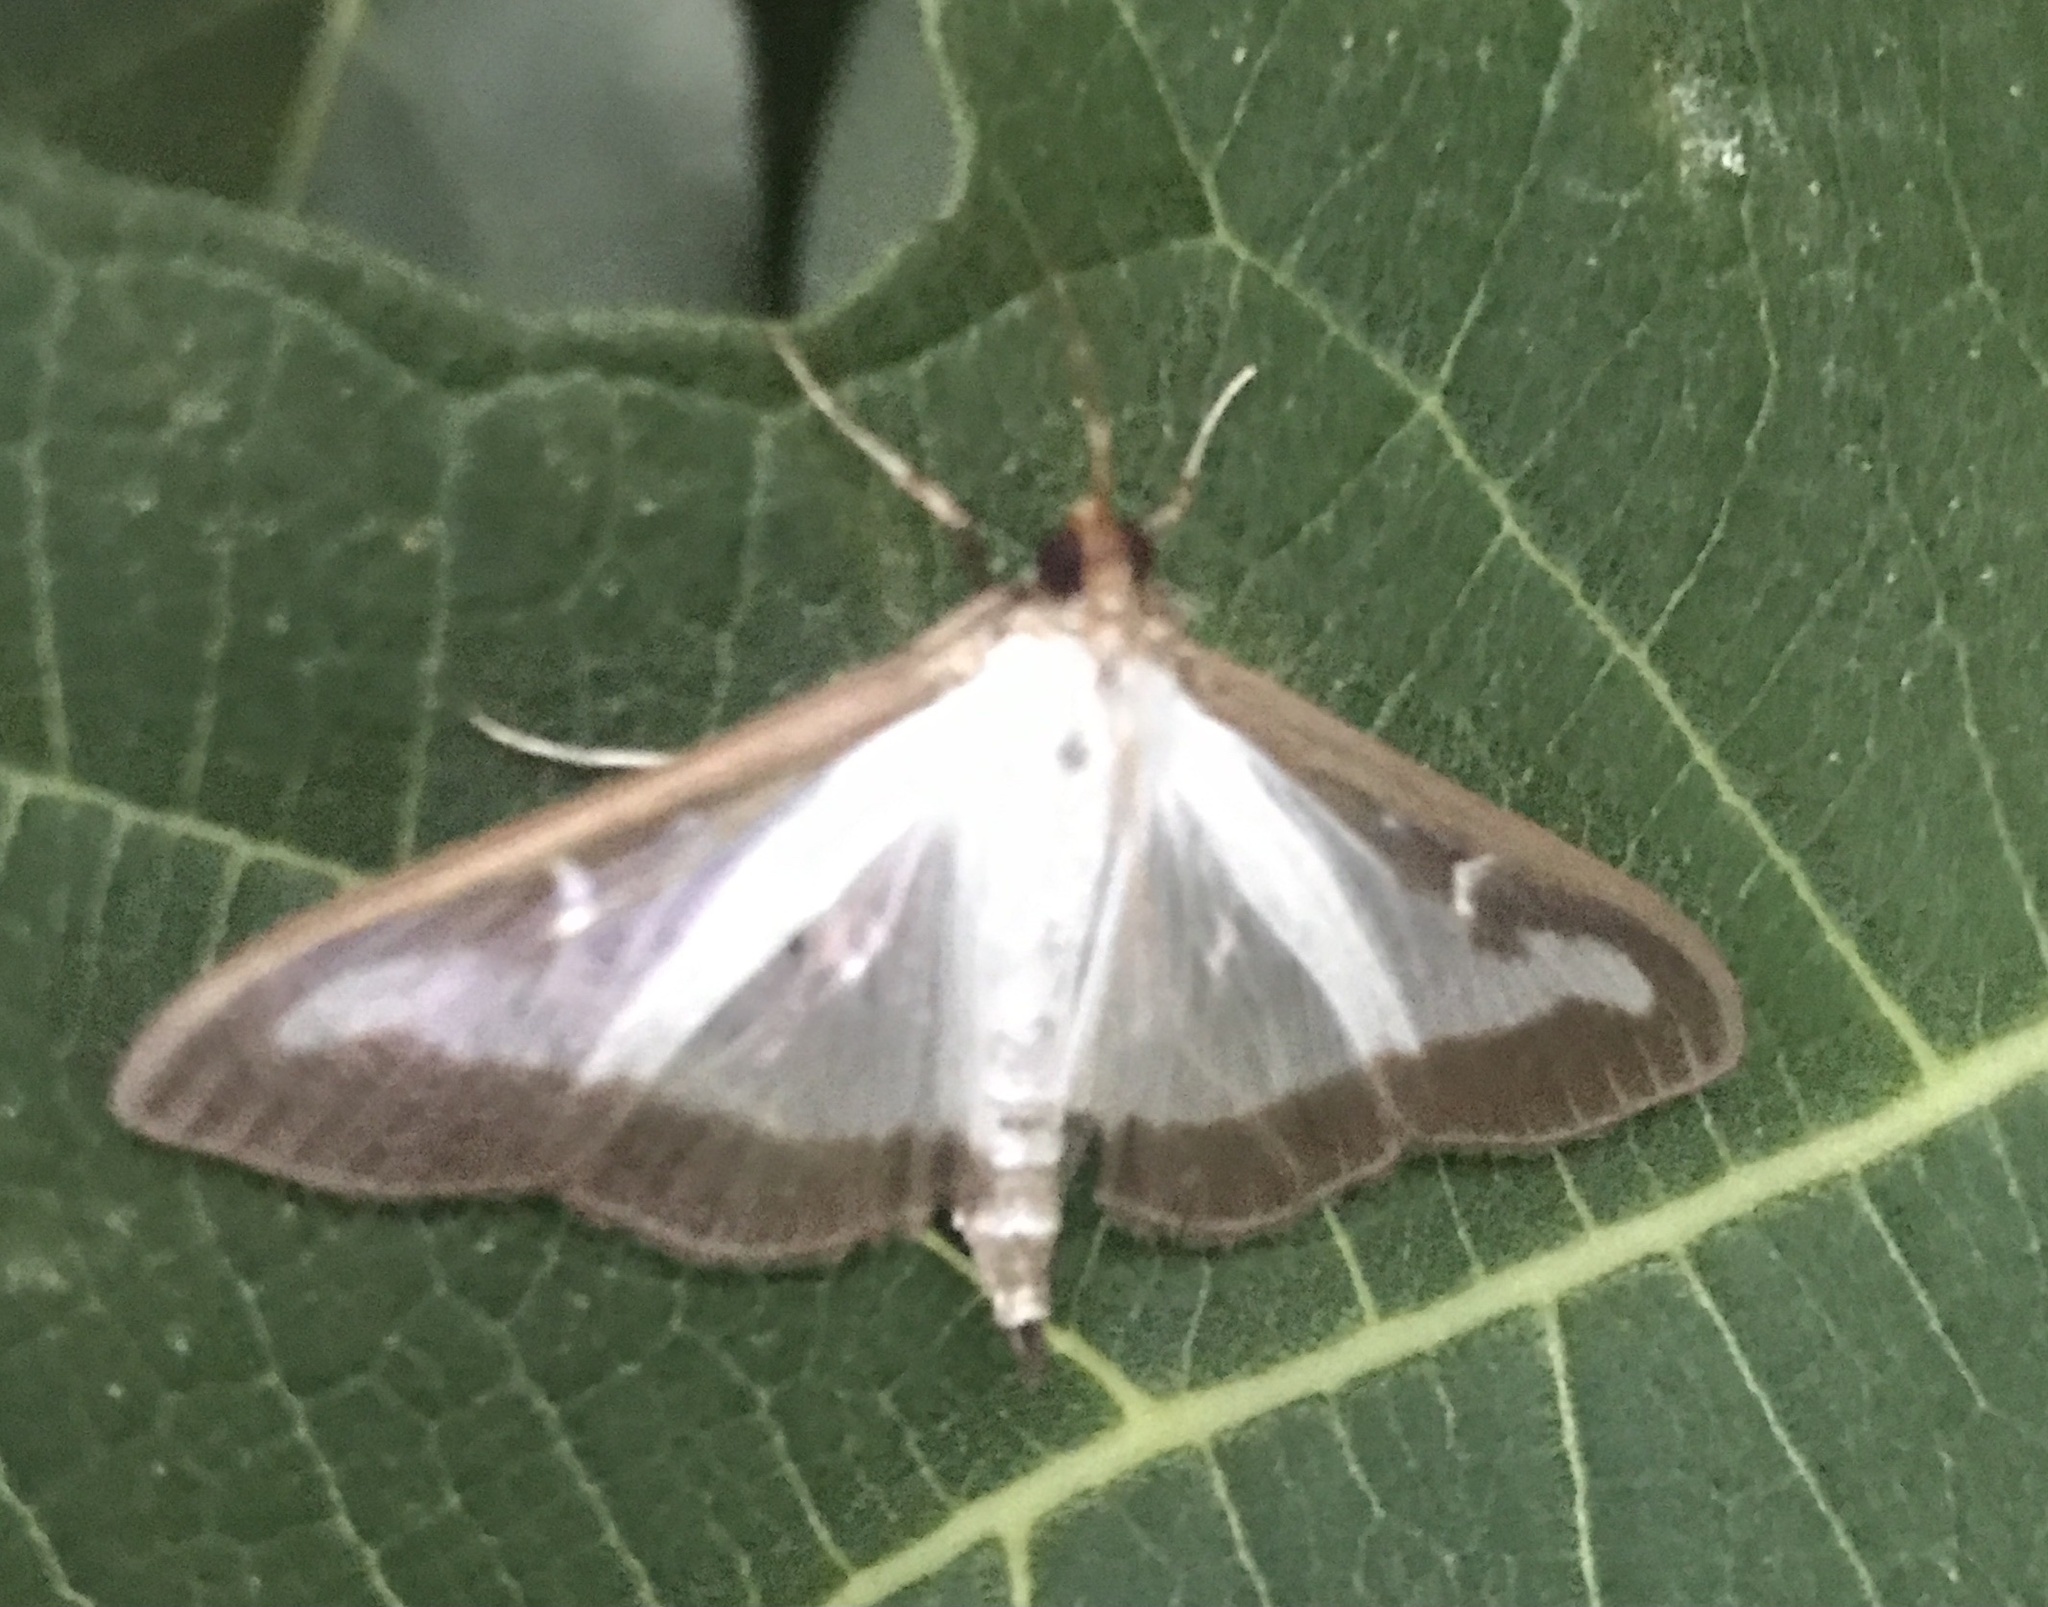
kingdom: Animalia
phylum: Arthropoda
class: Insecta
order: Lepidoptera
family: Crambidae
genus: Cydalima
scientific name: Cydalima perspectalis
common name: Box tree moth
